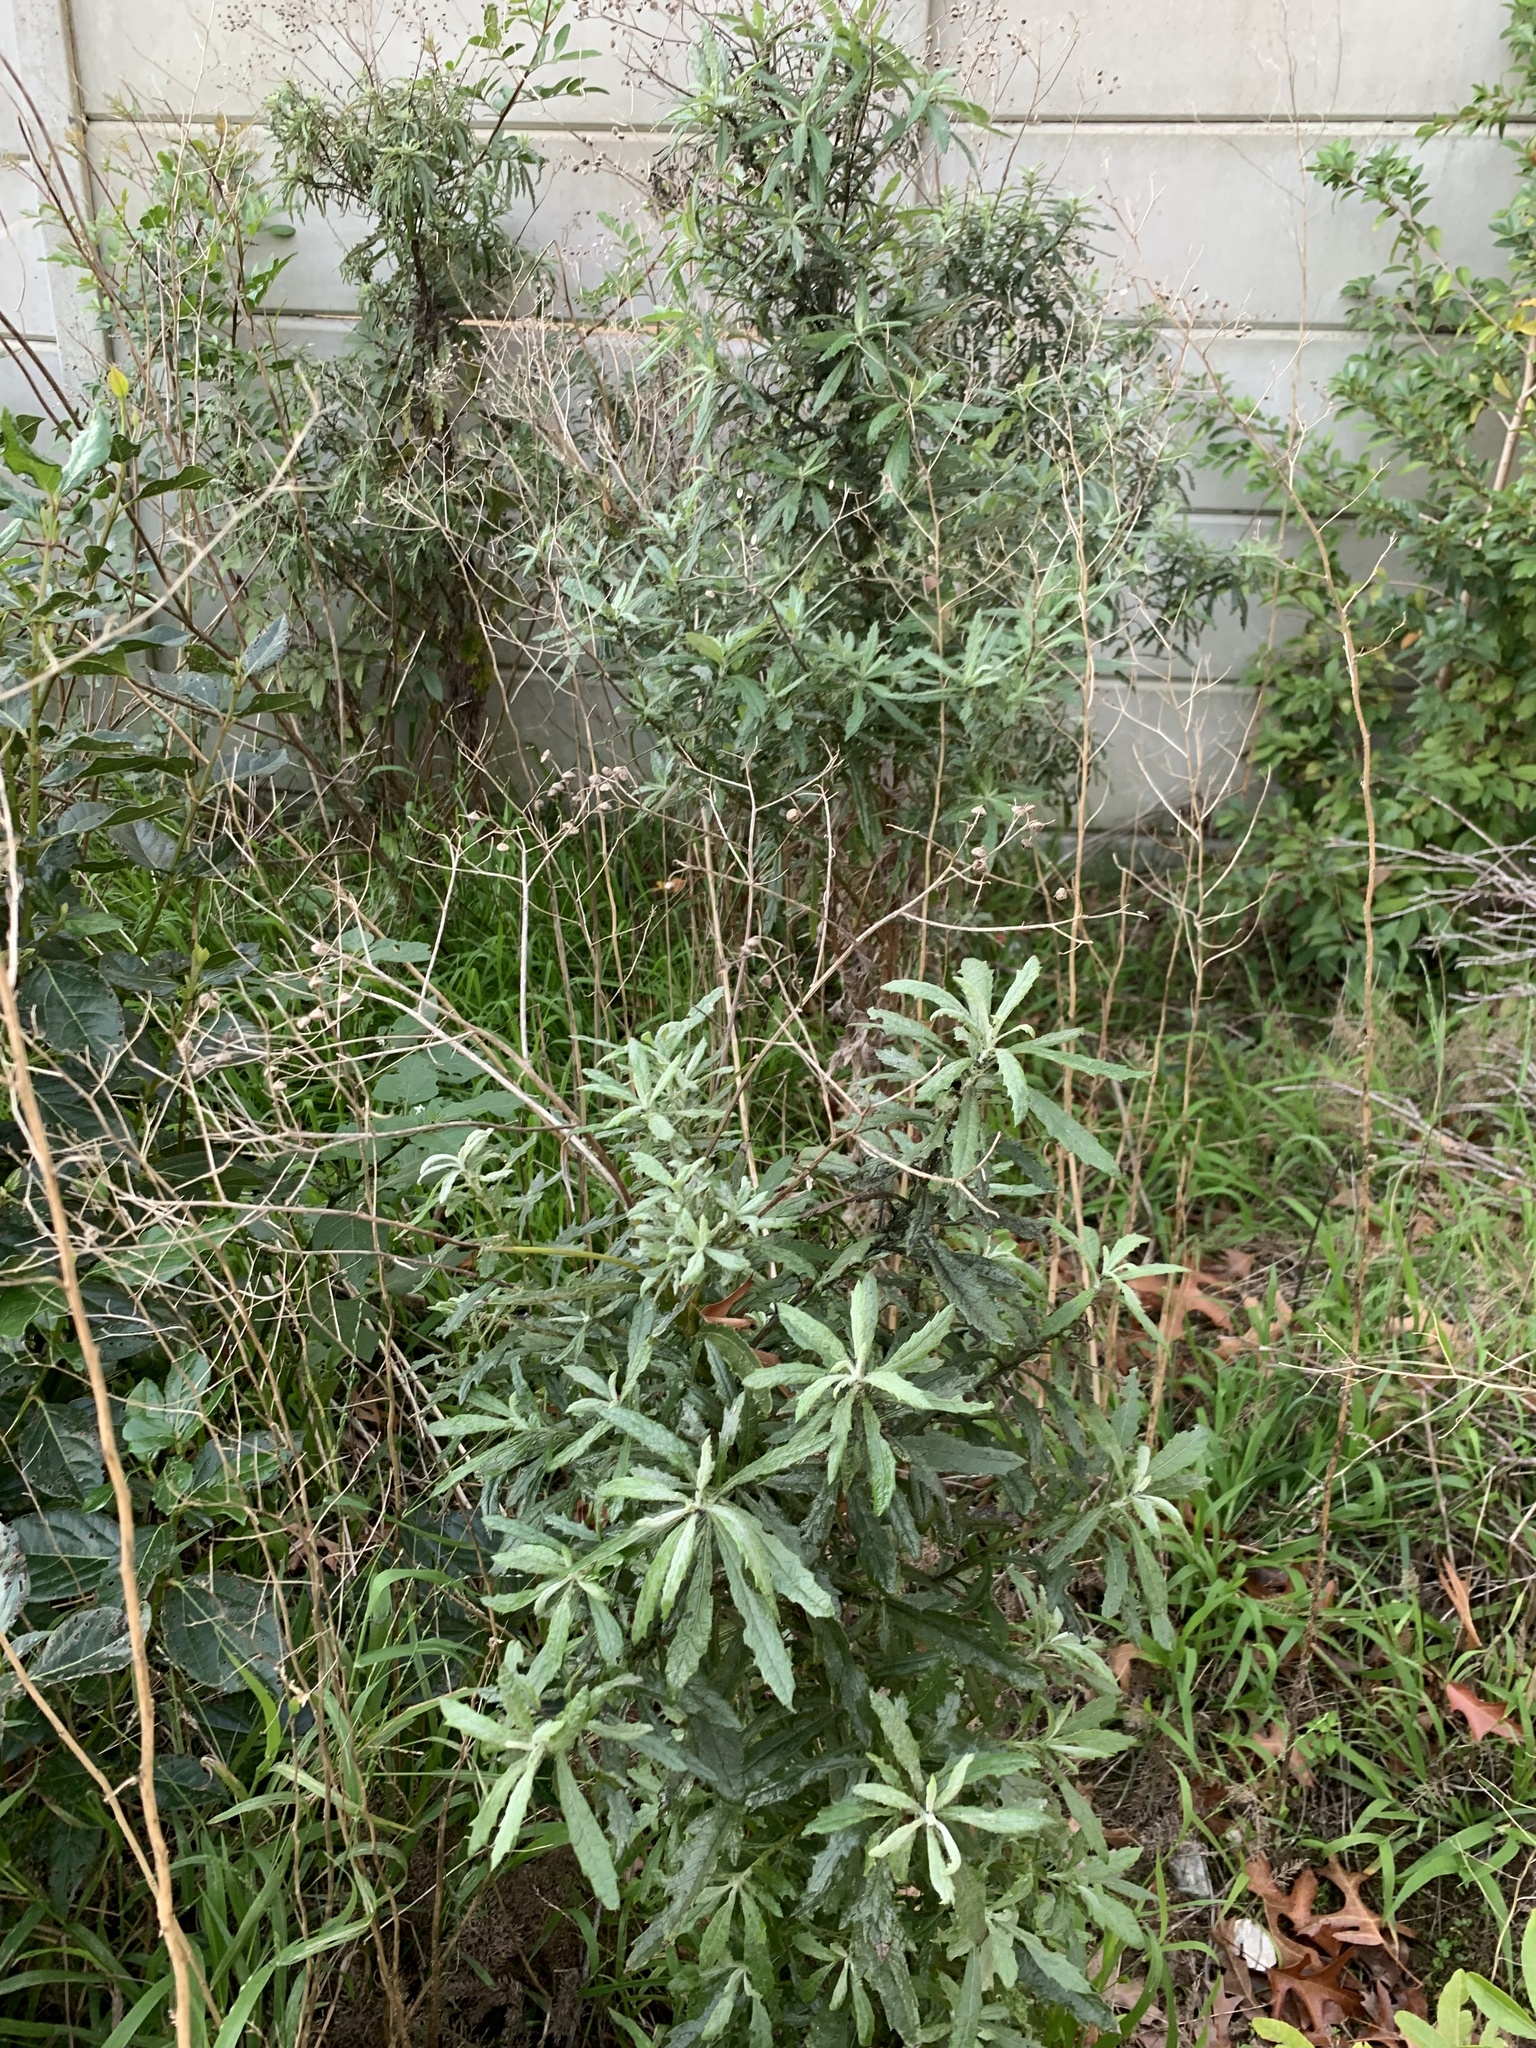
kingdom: Plantae
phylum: Tracheophyta
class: Magnoliopsida
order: Asterales
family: Asteraceae
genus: Senecio
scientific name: Senecio pterophorus
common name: Shoddy ragwort
